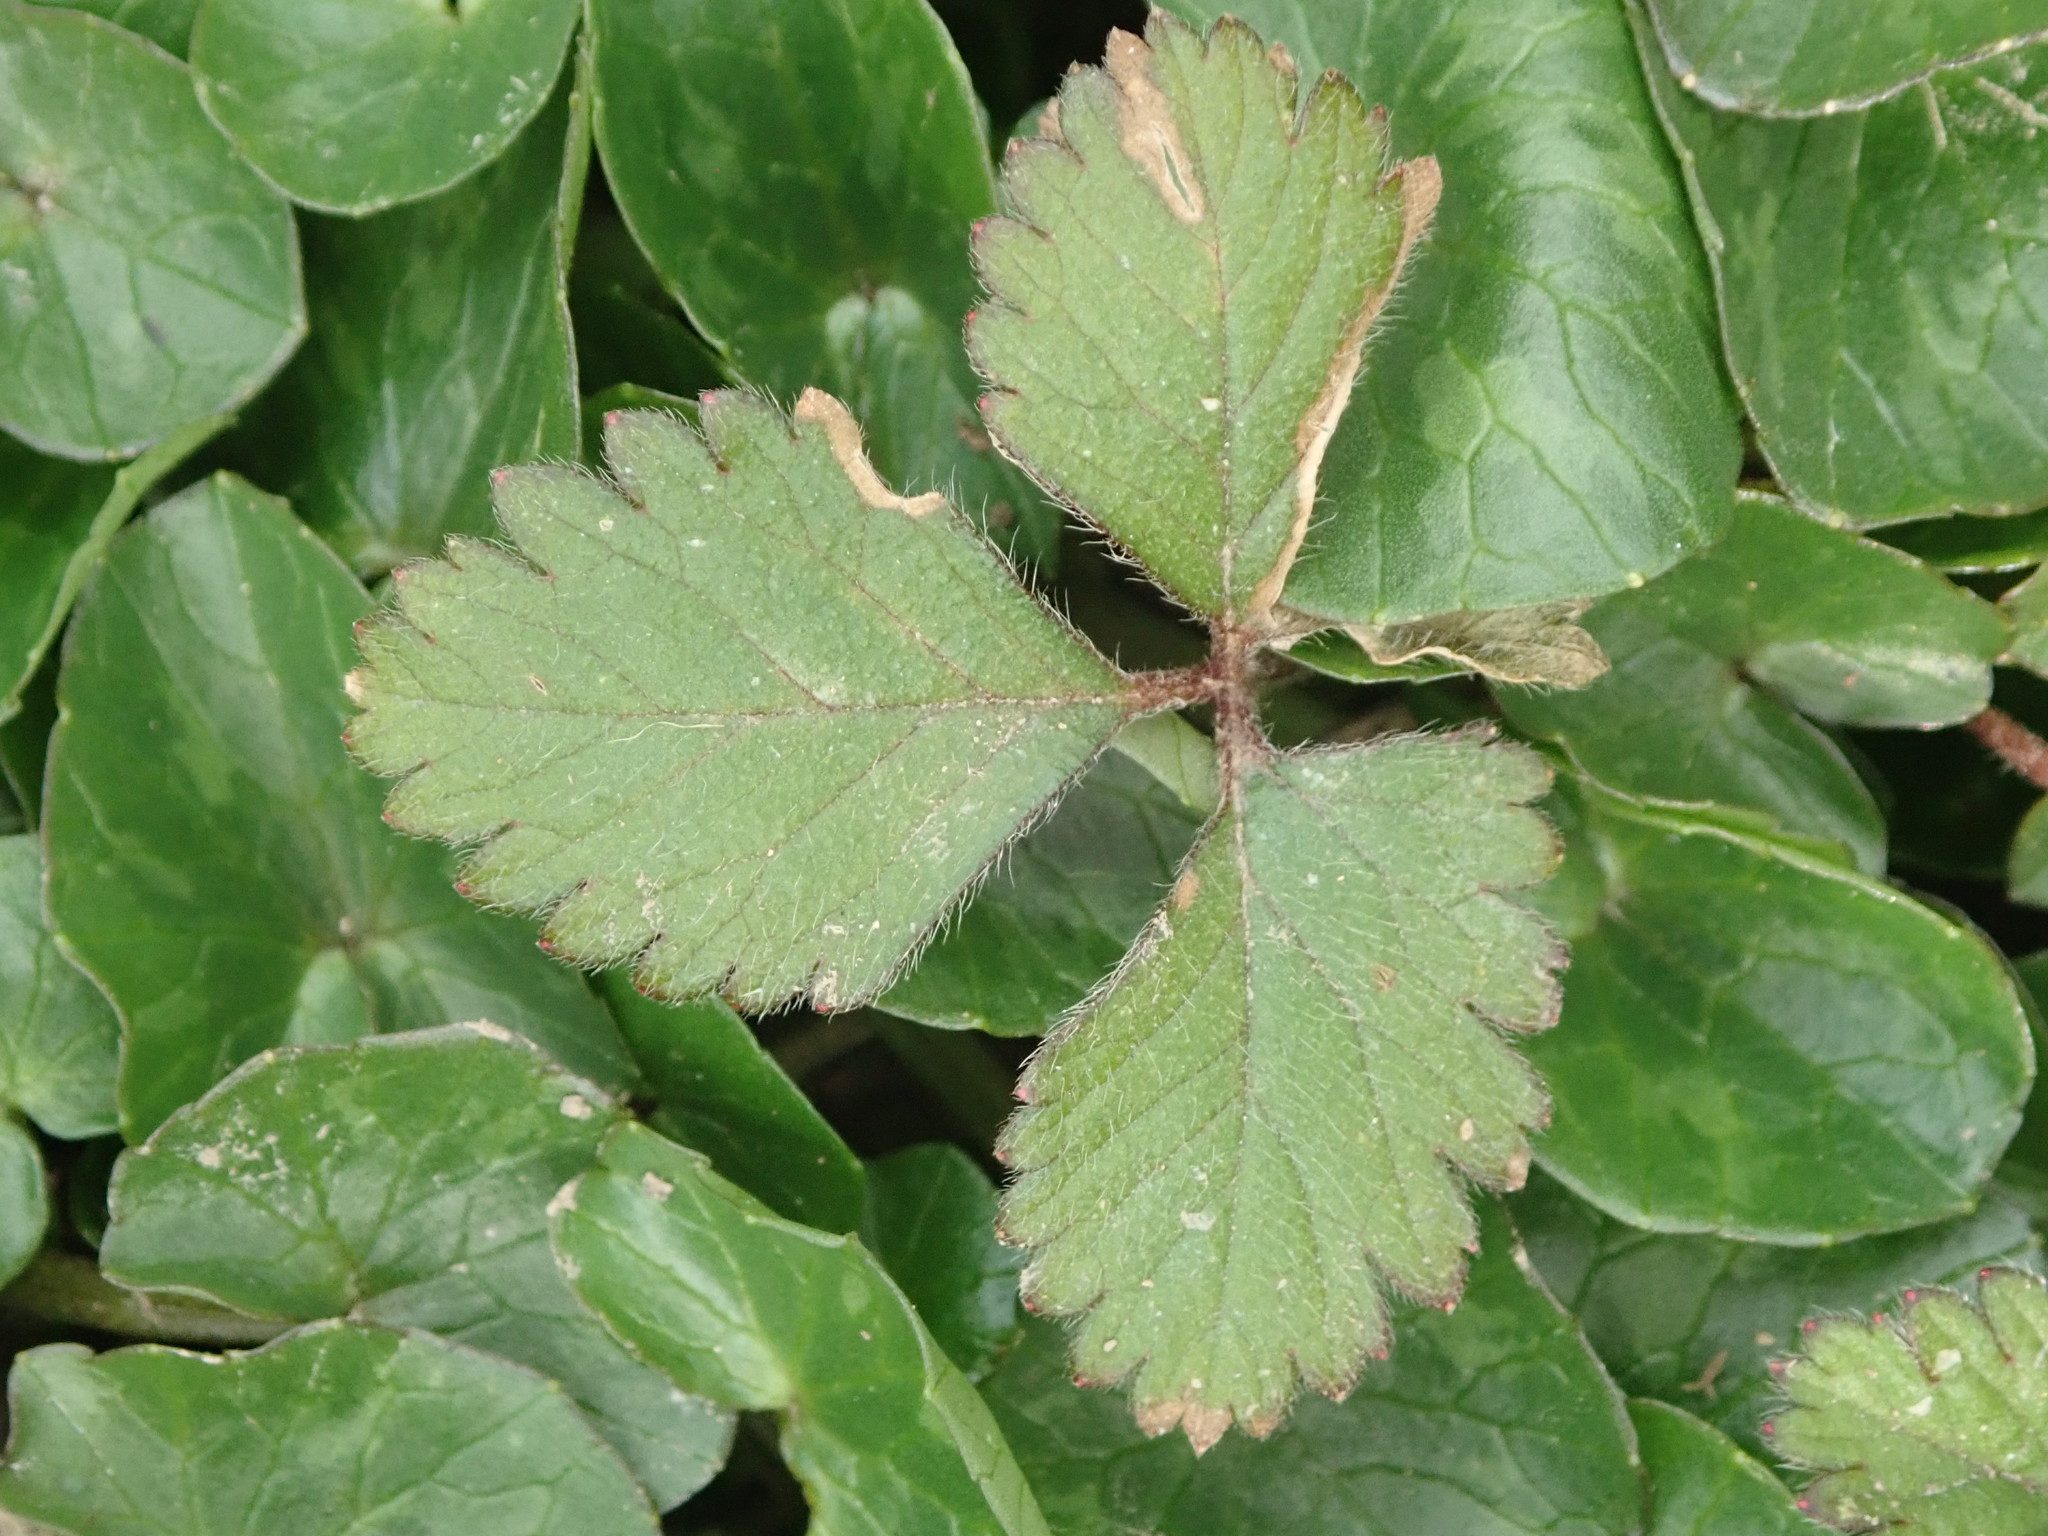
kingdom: Plantae
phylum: Tracheophyta
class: Magnoliopsida
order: Rosales
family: Rosaceae
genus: Potentilla
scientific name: Potentilla indica
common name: Yellow-flowered strawberry
